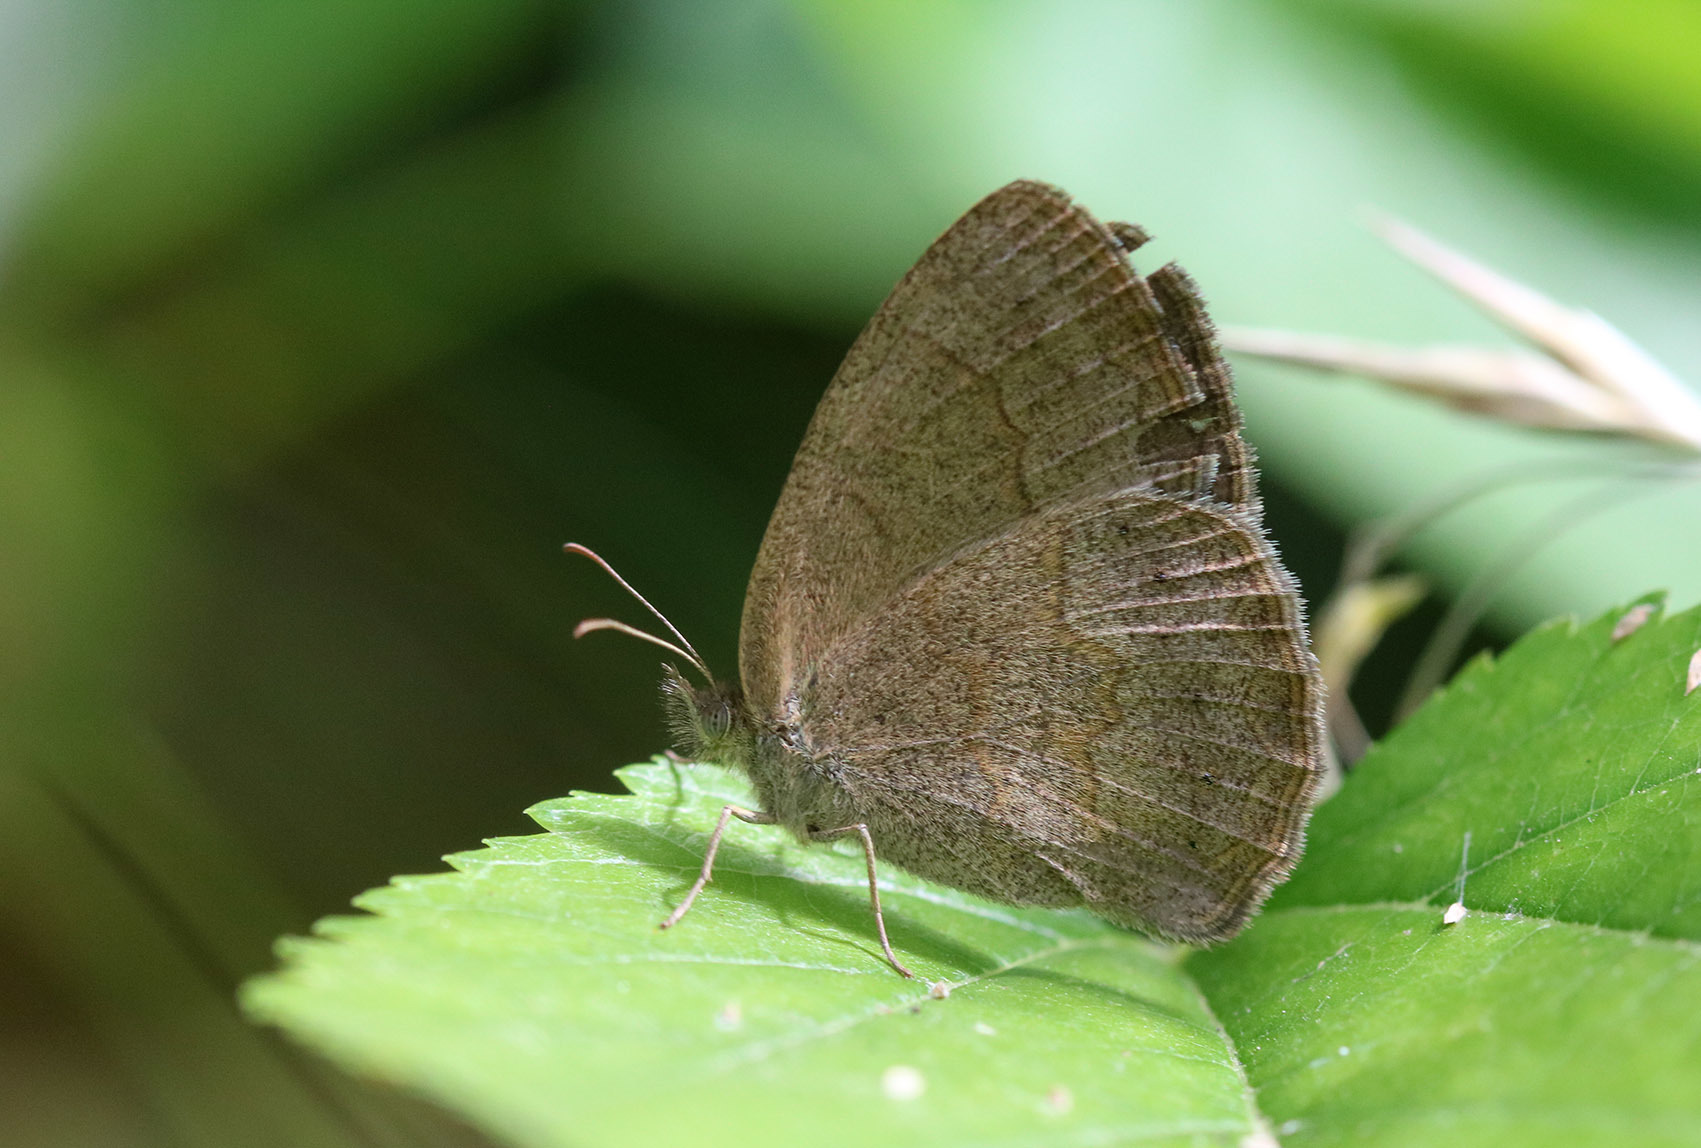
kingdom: Animalia
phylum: Arthropoda
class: Insecta
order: Lepidoptera
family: Nymphalidae
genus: Yphthimoides
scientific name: Yphthimoides celmis
